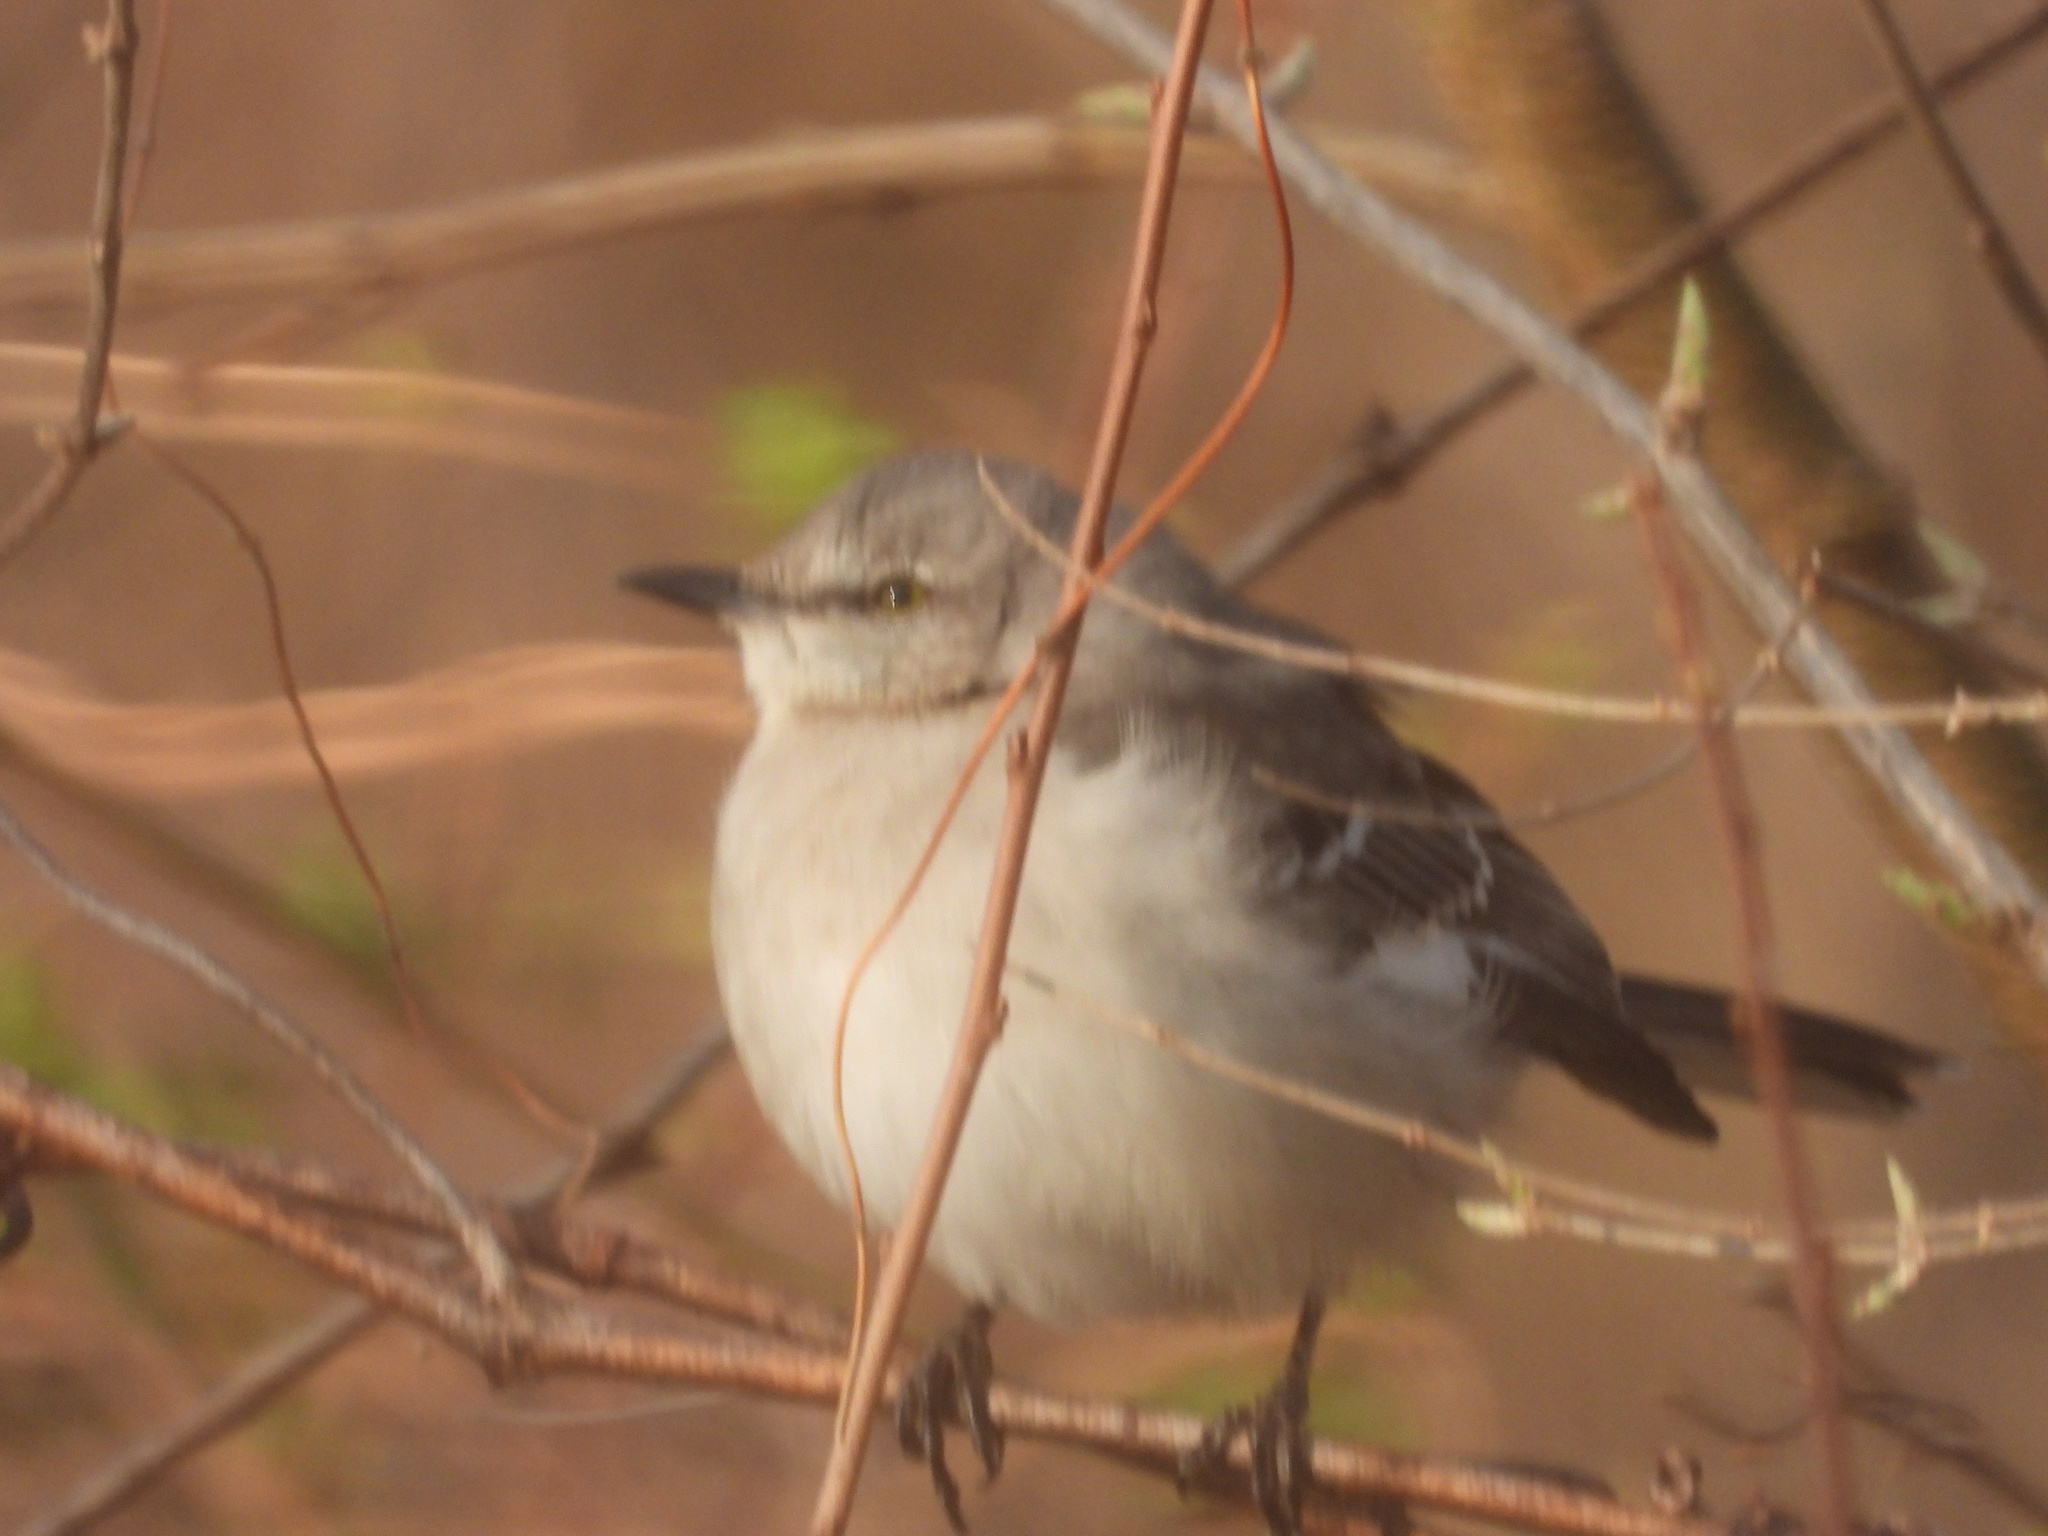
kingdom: Animalia
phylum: Chordata
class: Aves
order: Passeriformes
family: Mimidae
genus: Mimus
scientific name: Mimus polyglottos
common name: Northern mockingbird
